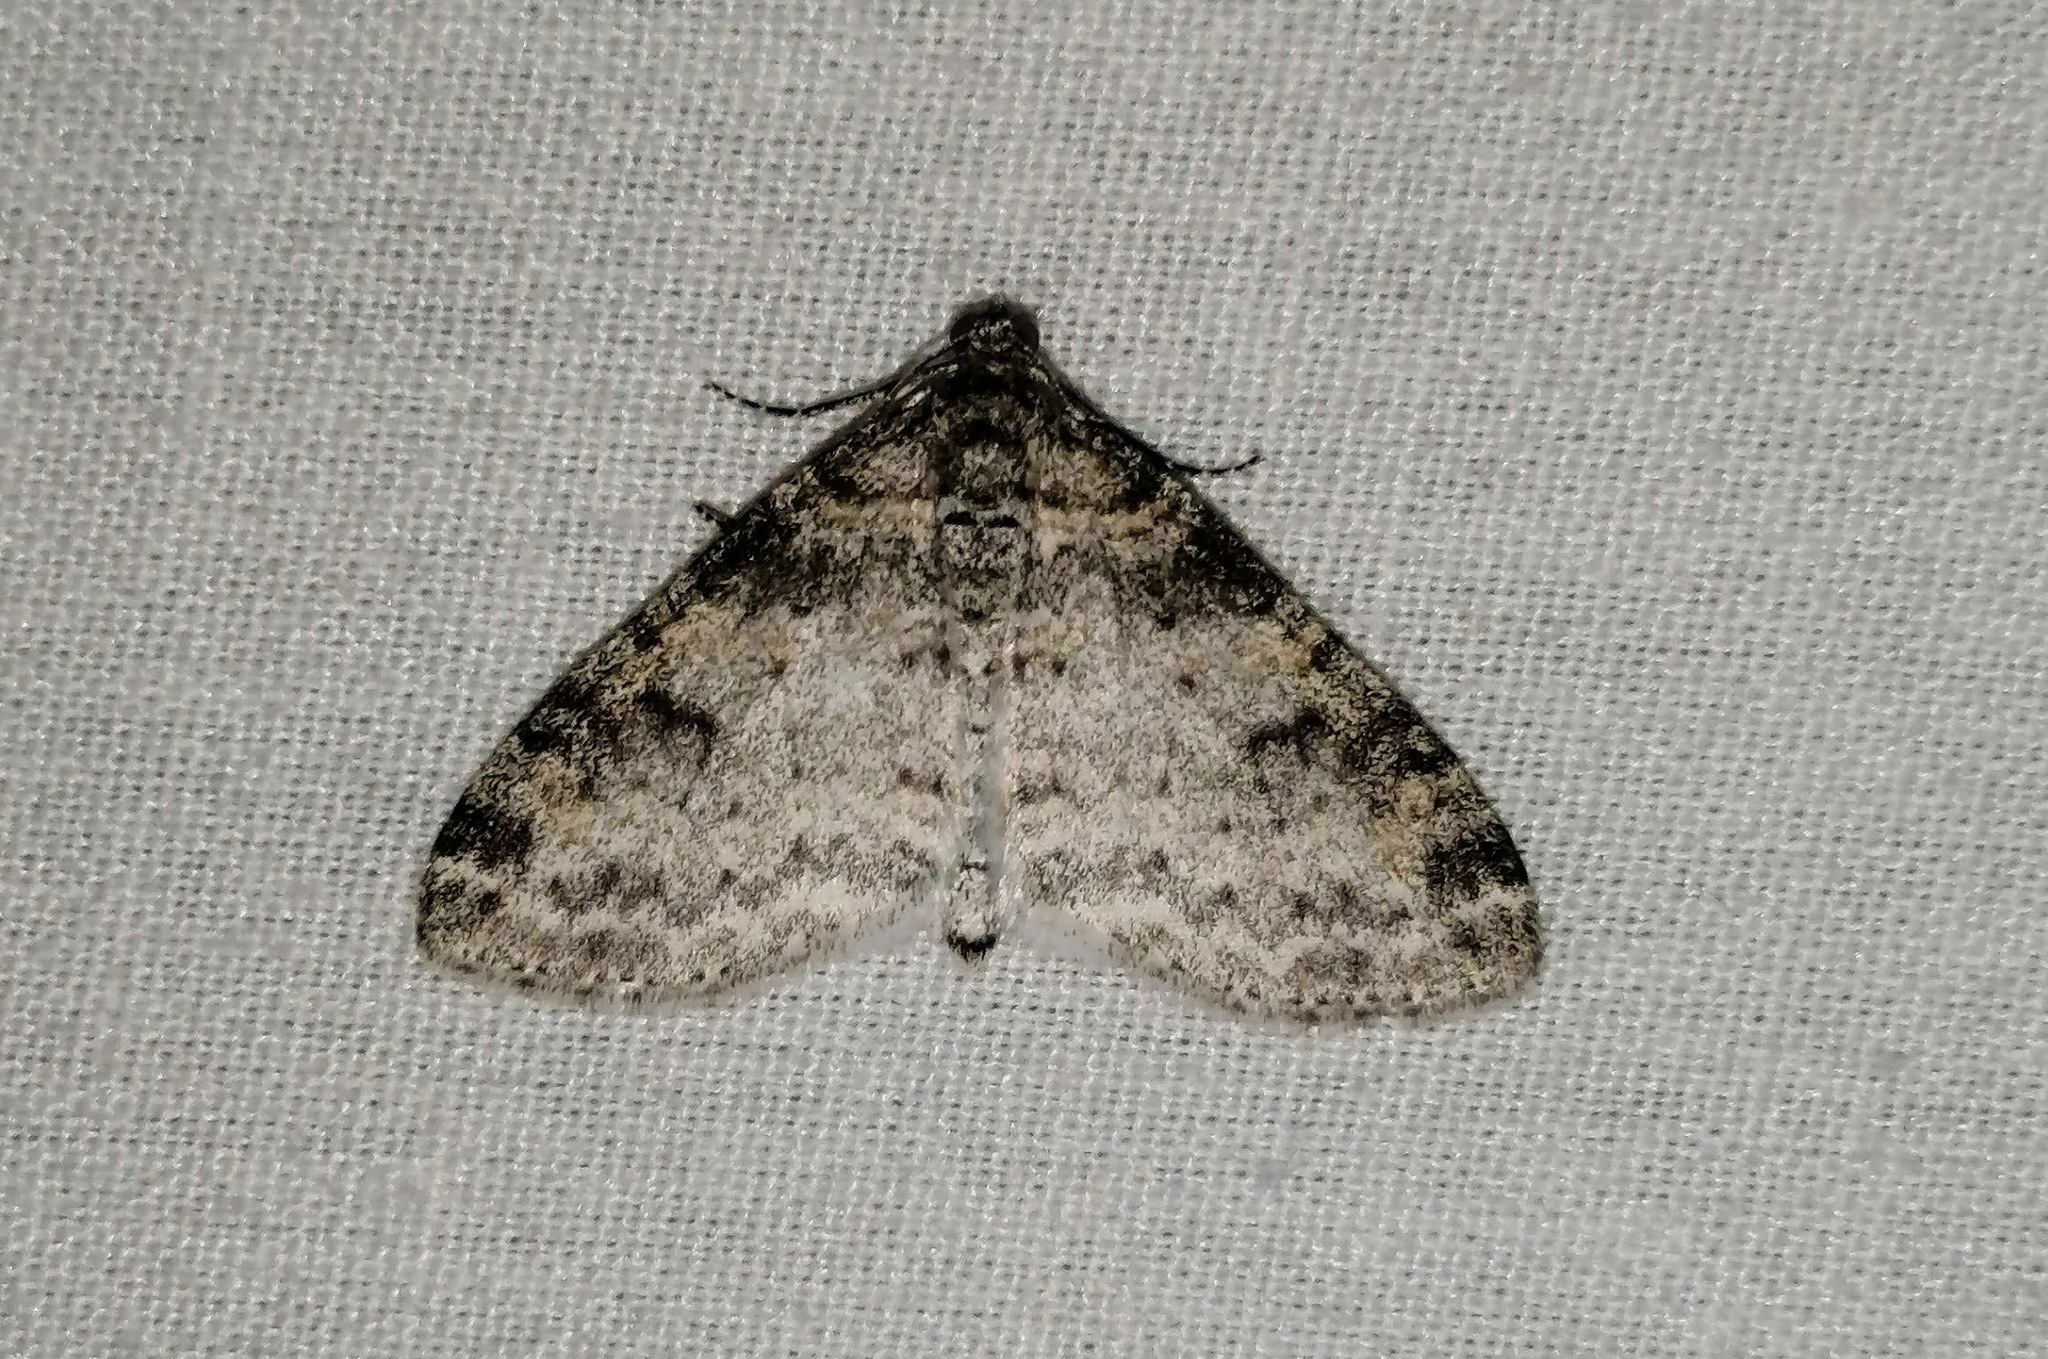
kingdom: Animalia
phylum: Arthropoda
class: Insecta
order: Lepidoptera
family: Geometridae
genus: Lobophora
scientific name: Lobophora nivigerata
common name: Powdered bigwing
